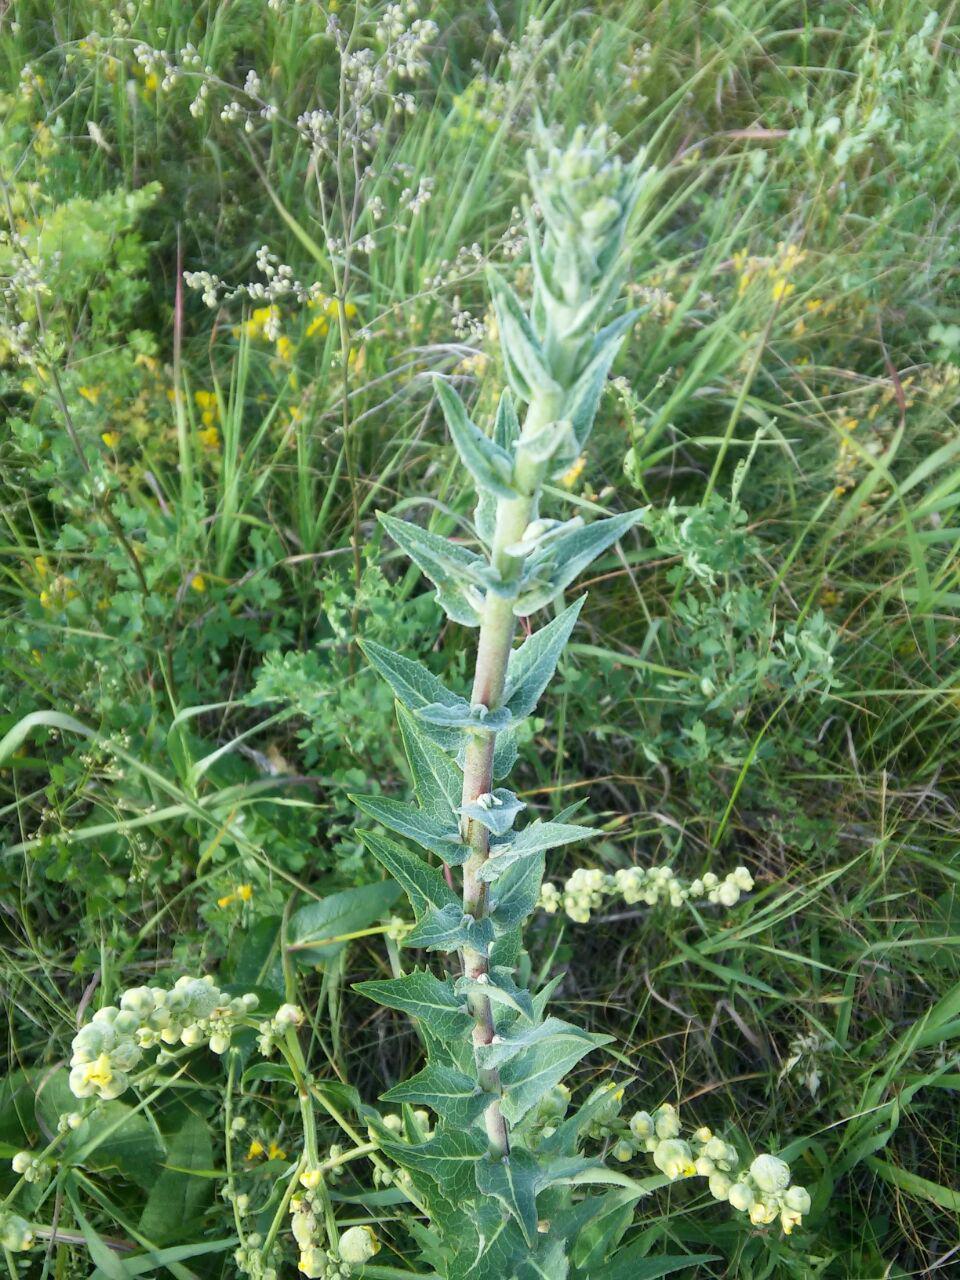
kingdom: Plantae
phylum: Tracheophyta
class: Magnoliopsida
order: Asterales
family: Asteraceae
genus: Hieracium
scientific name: Hieracium virosum
